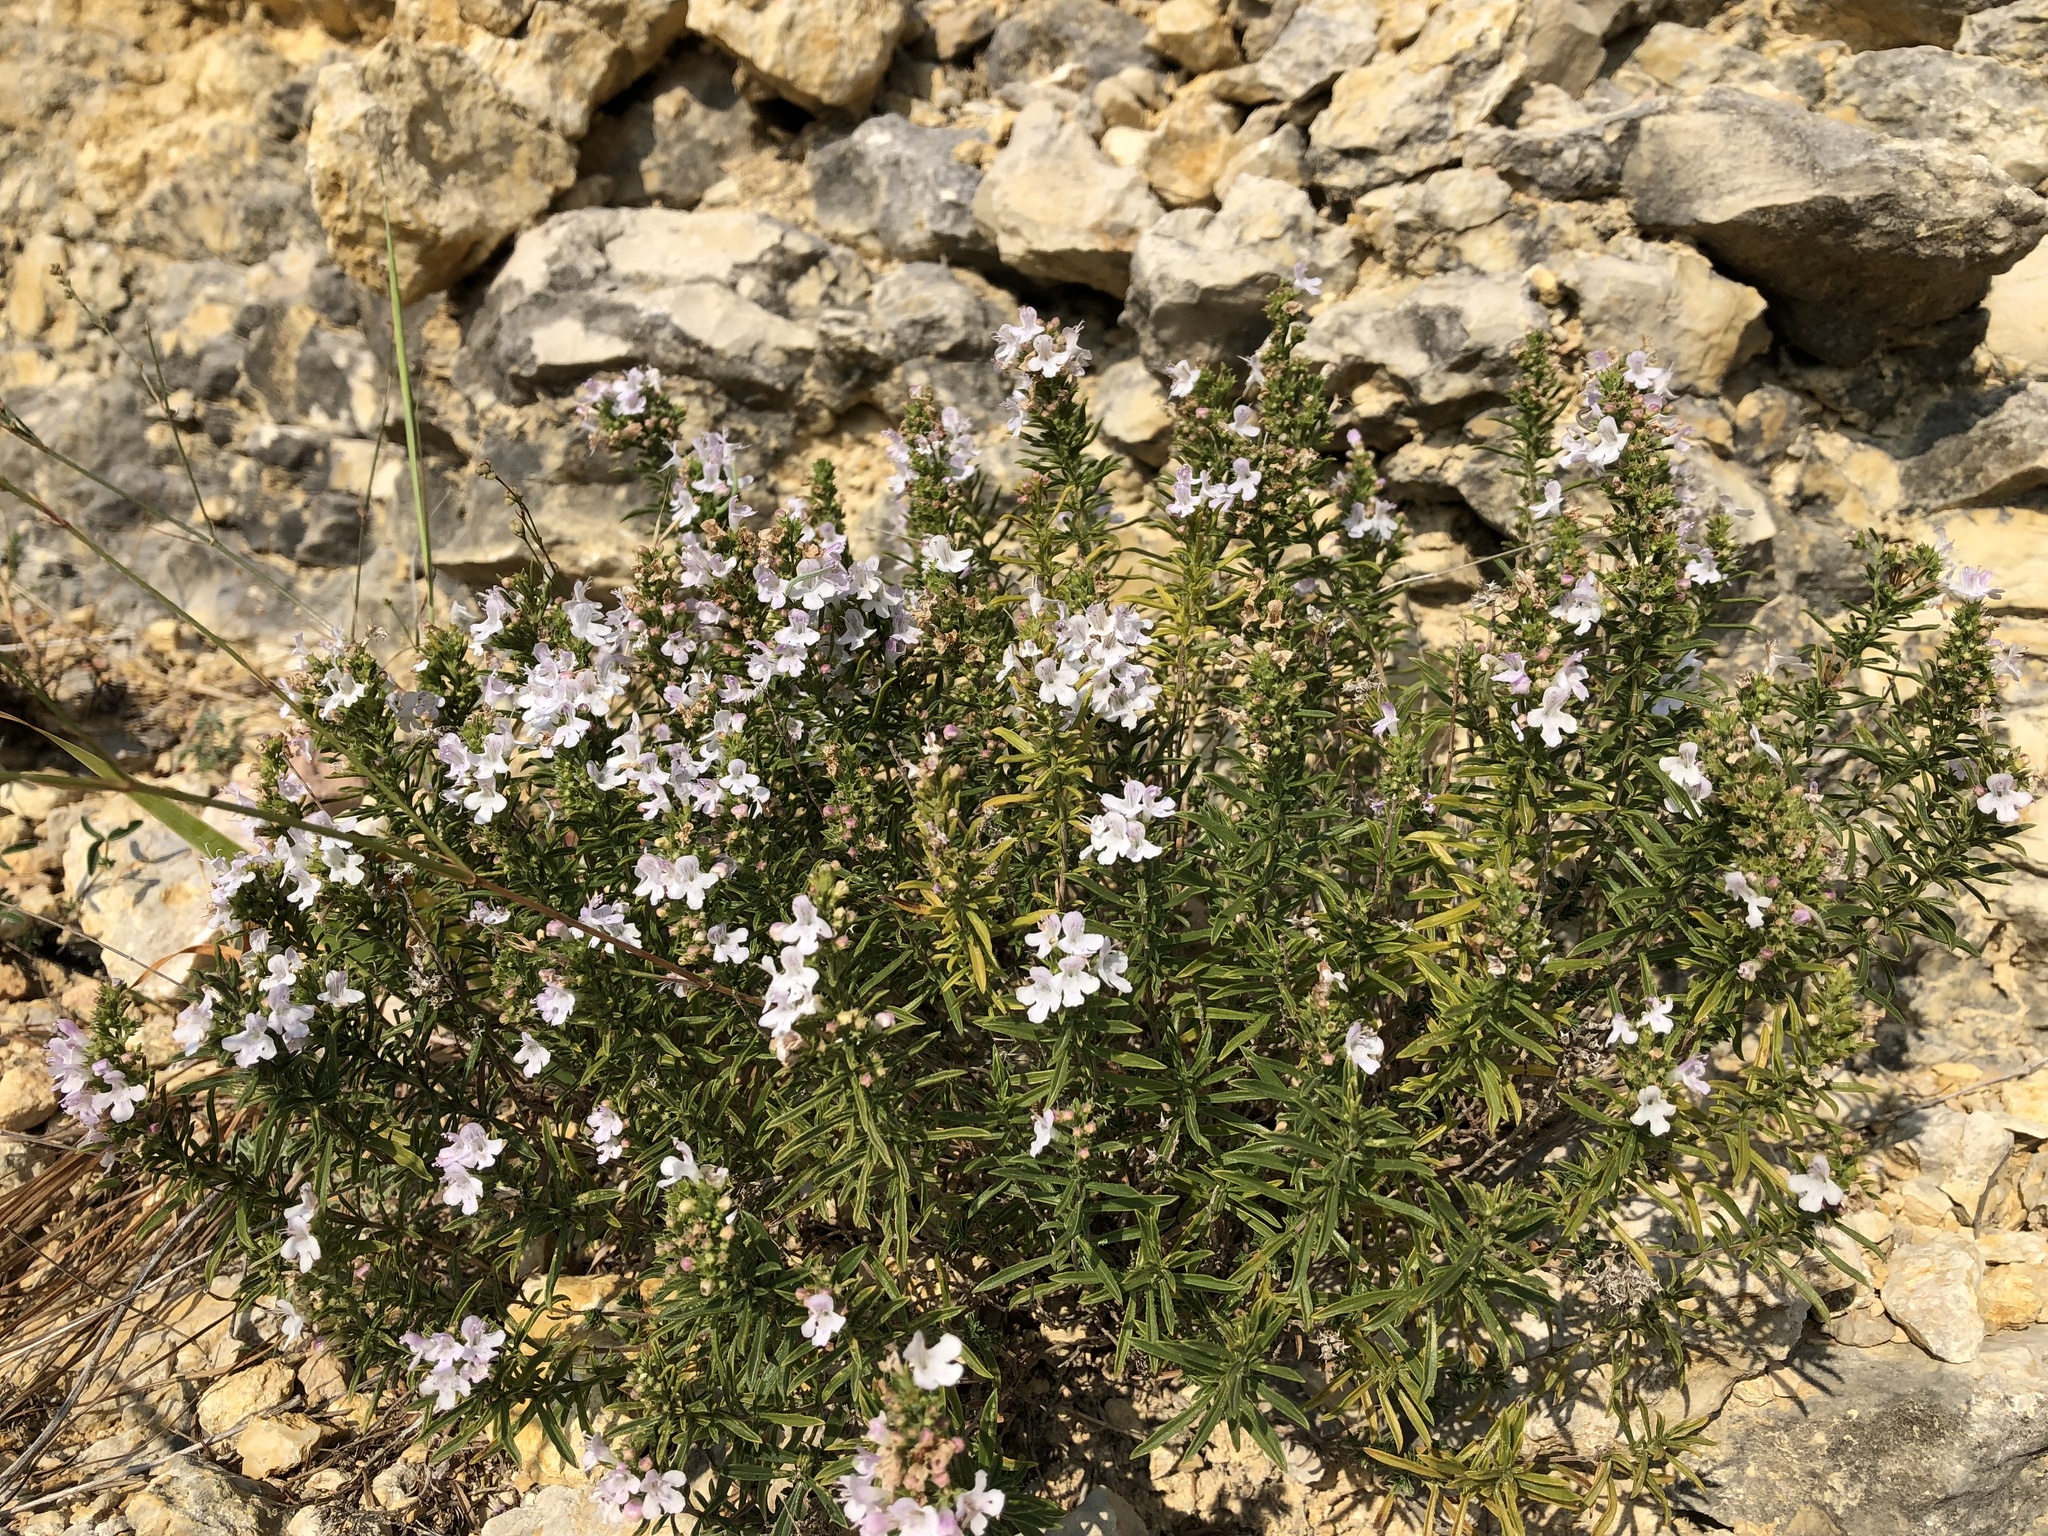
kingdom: Plantae
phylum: Tracheophyta
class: Magnoliopsida
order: Lamiales
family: Lamiaceae
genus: Satureja
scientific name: Satureja montana
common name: Winter savory
